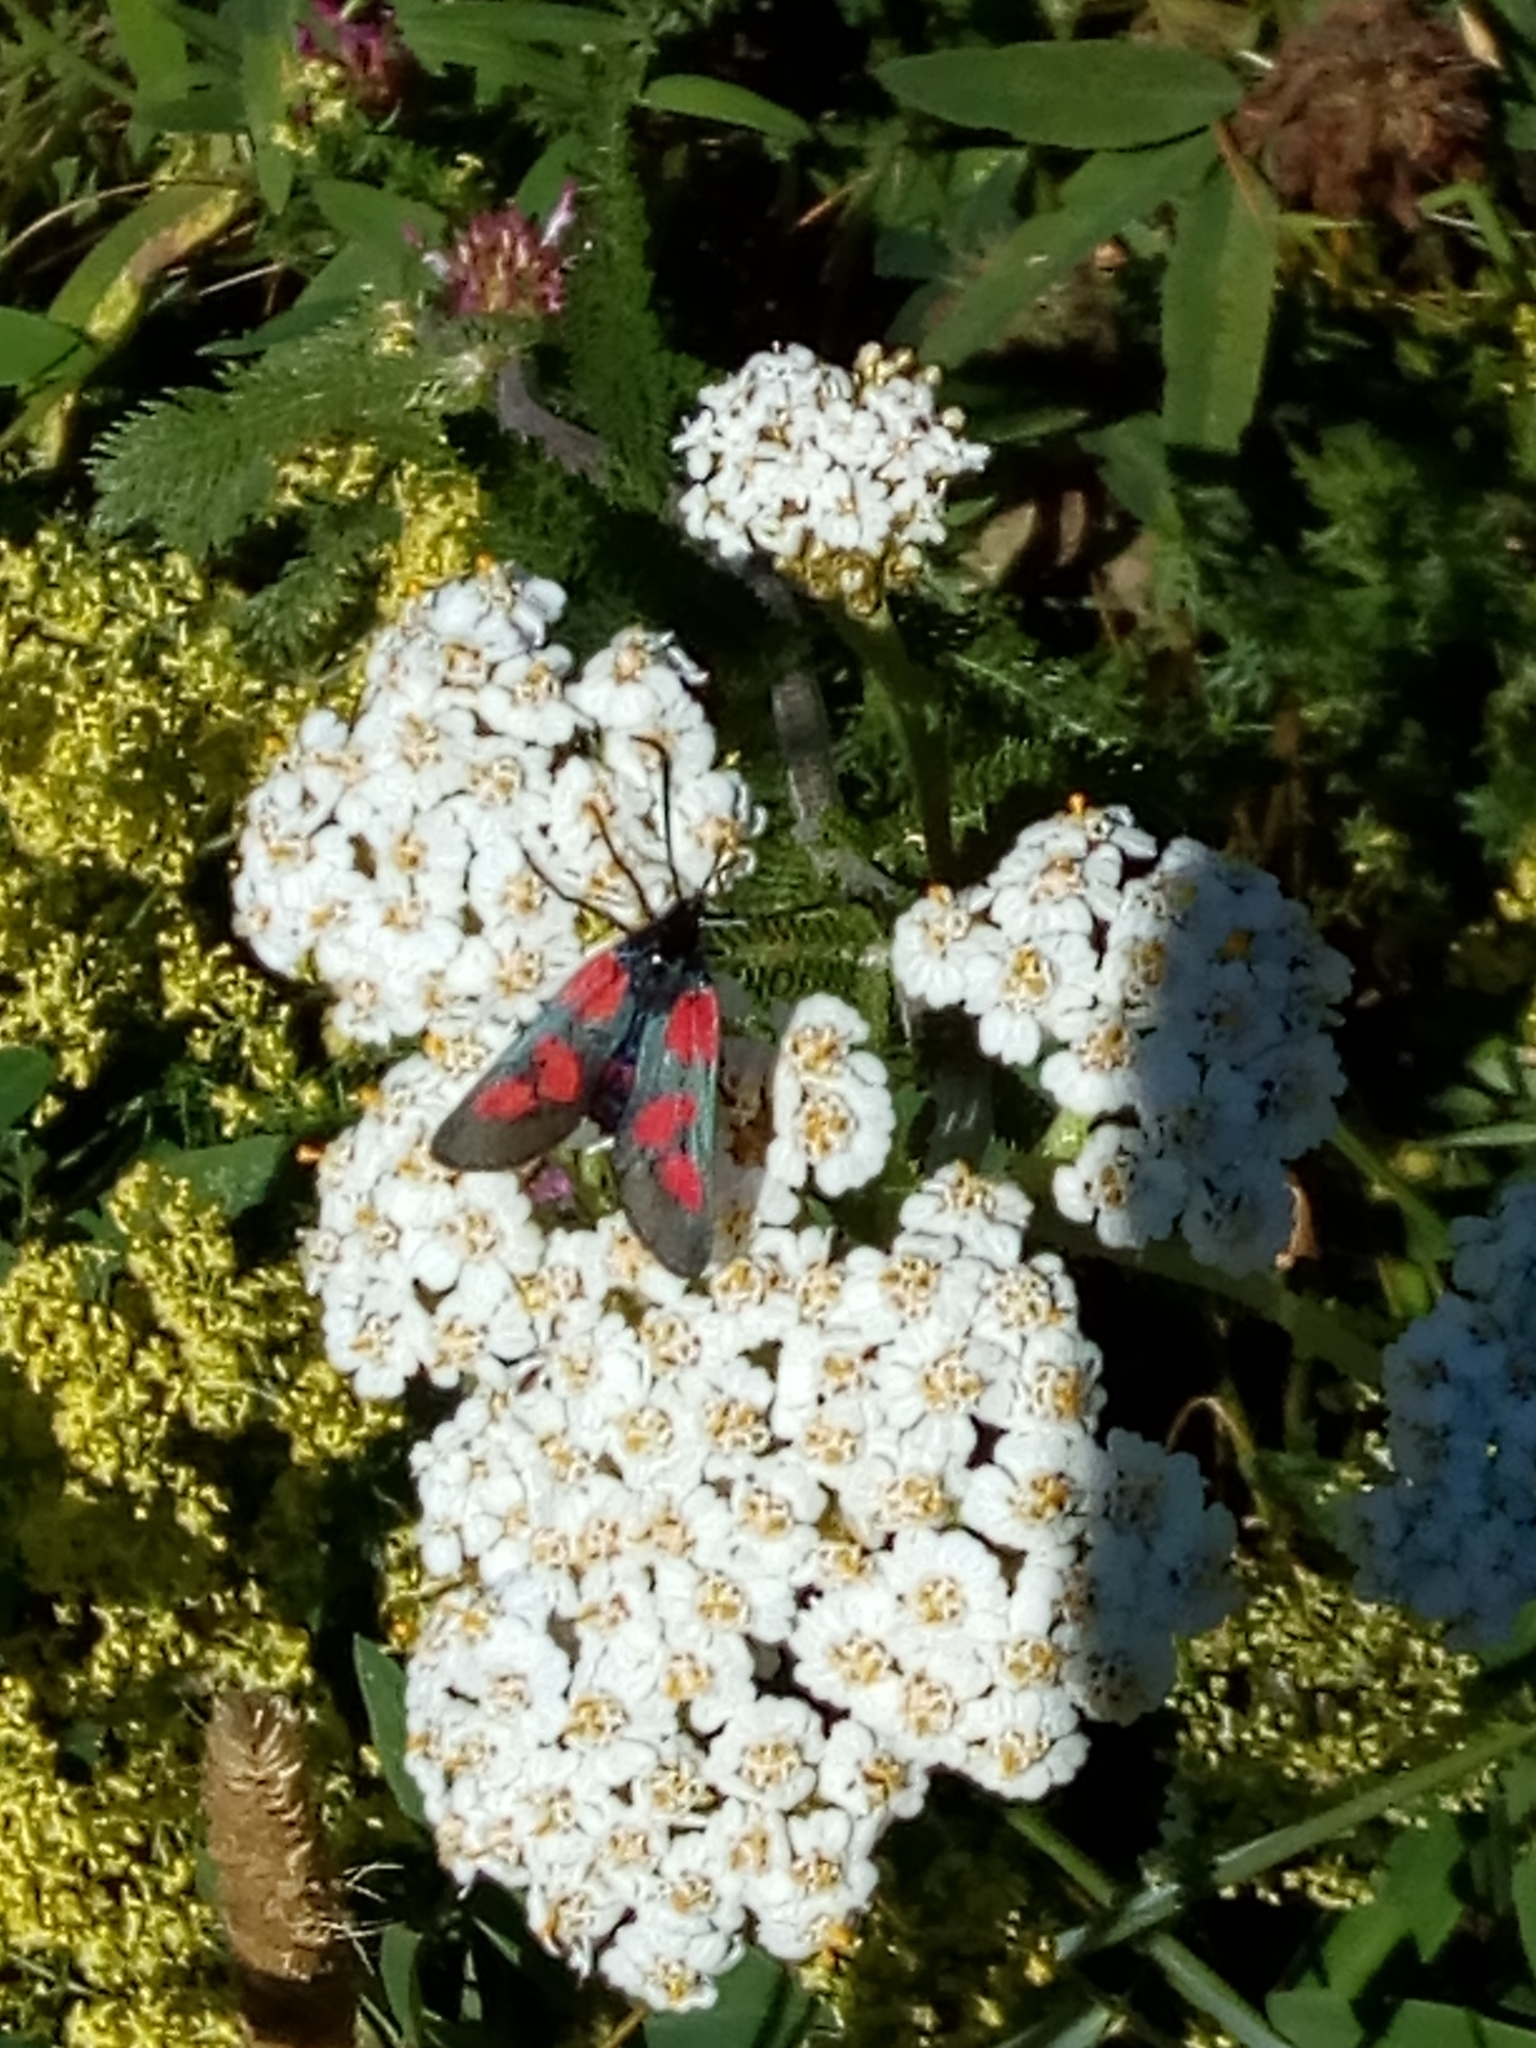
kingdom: Animalia
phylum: Arthropoda
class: Insecta
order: Lepidoptera
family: Zygaenidae
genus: Zygaena
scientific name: Zygaena viciae
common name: New forest burnet
